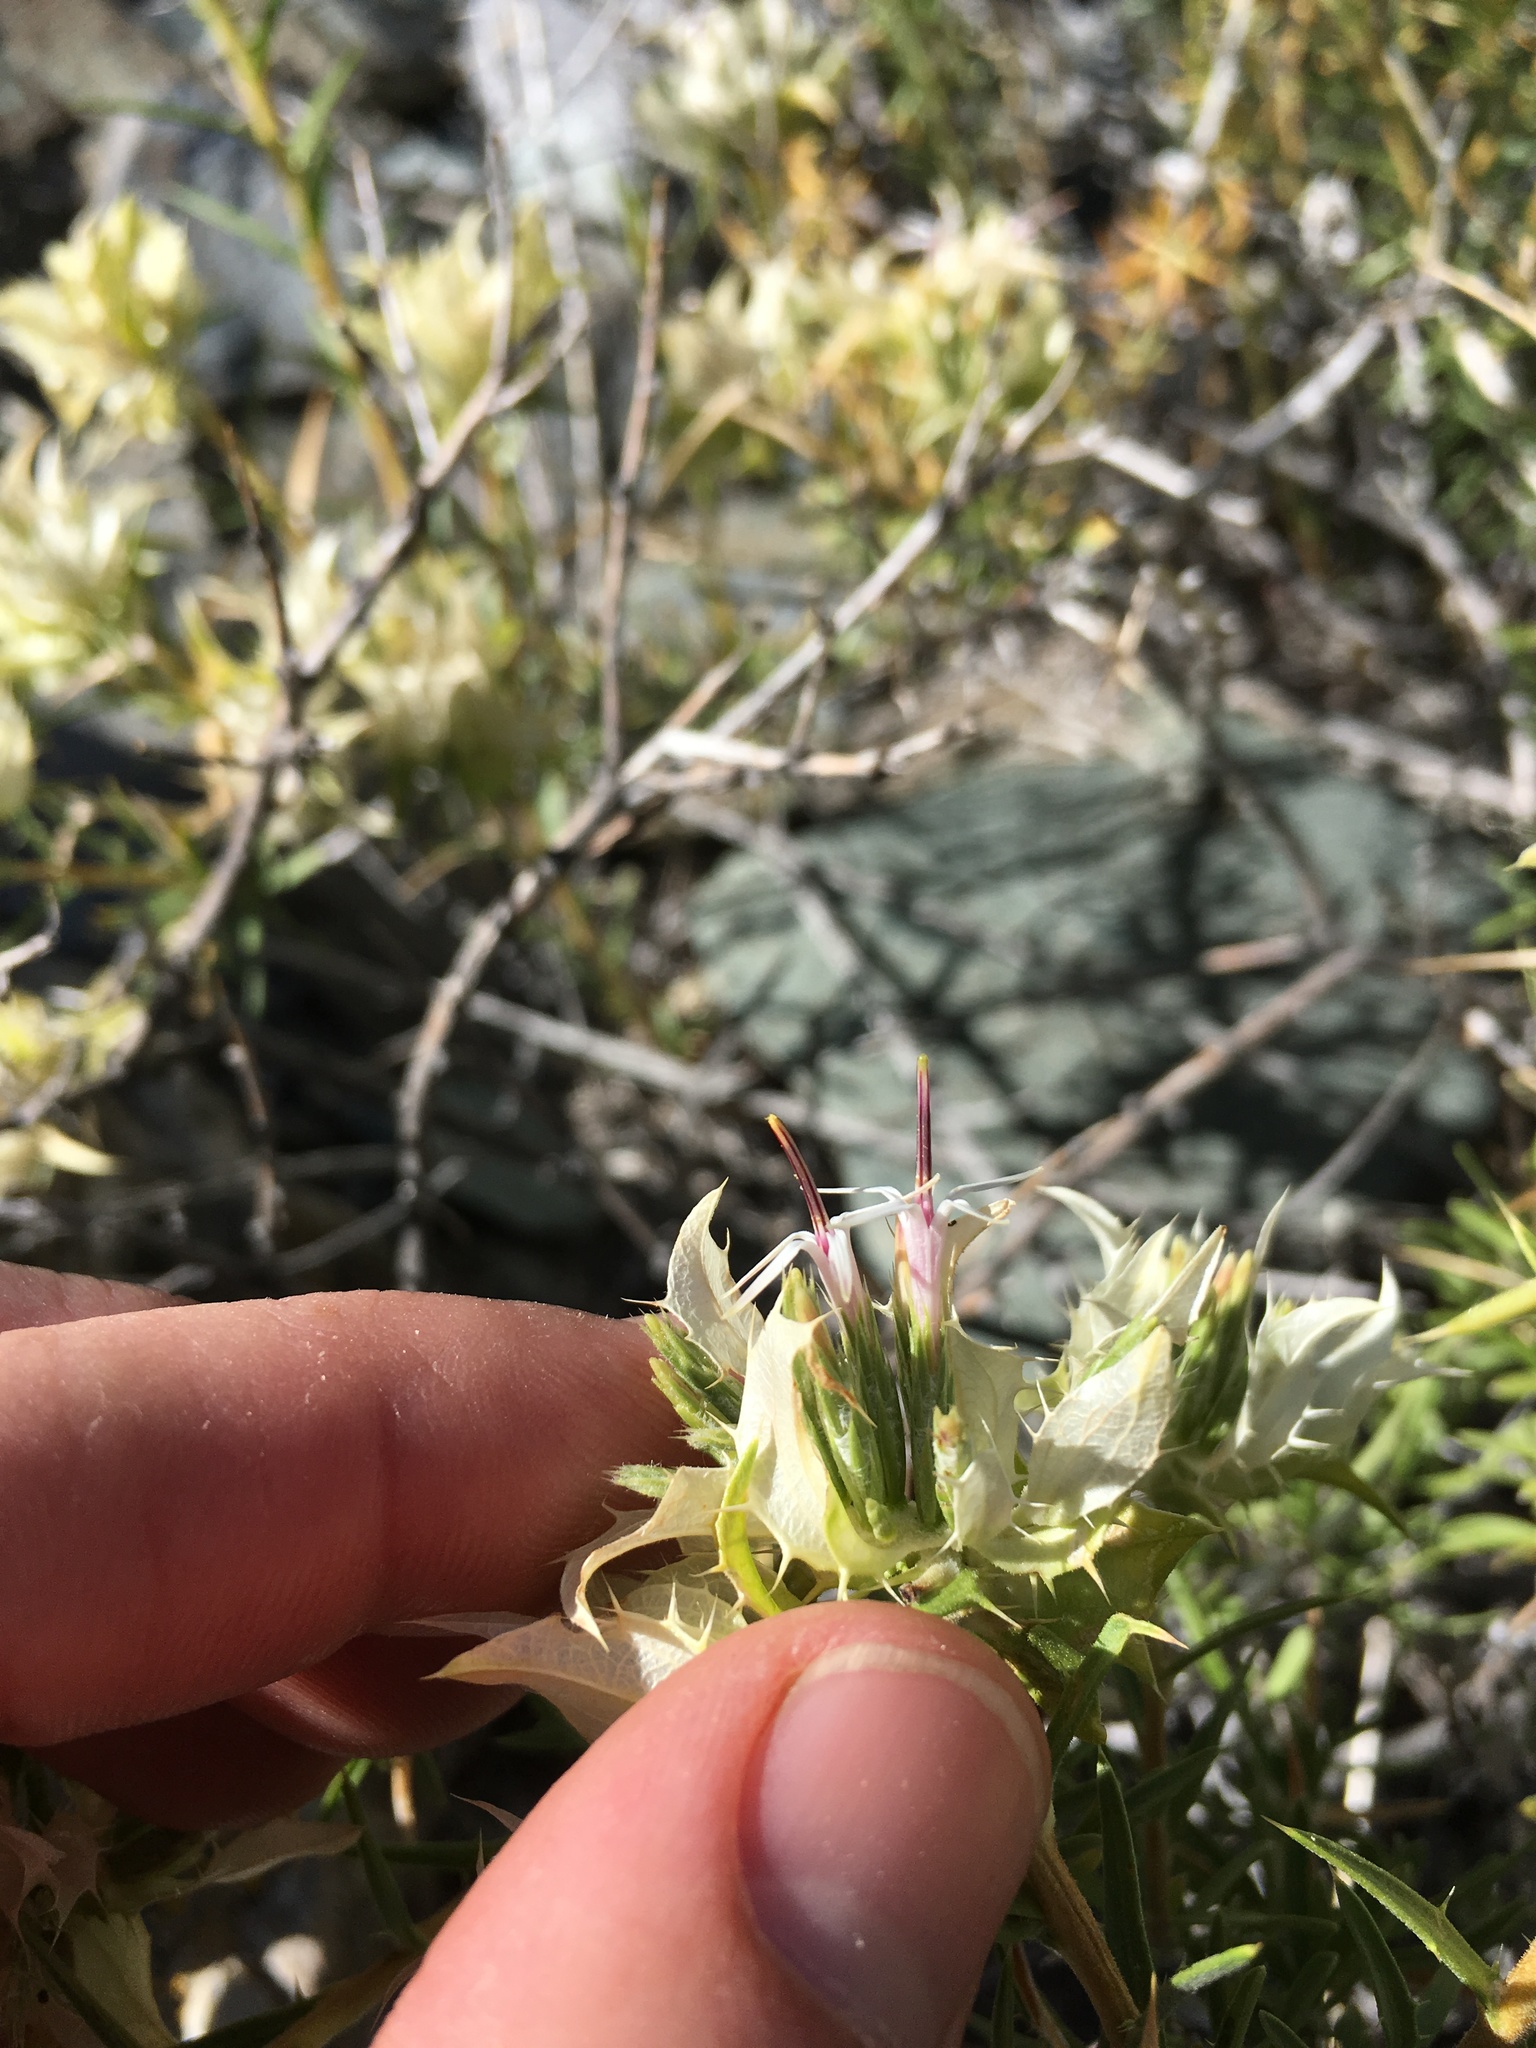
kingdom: Plantae
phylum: Tracheophyta
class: Magnoliopsida
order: Asterales
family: Asteraceae
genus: Hecastocleis
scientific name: Hecastocleis shockleyi
